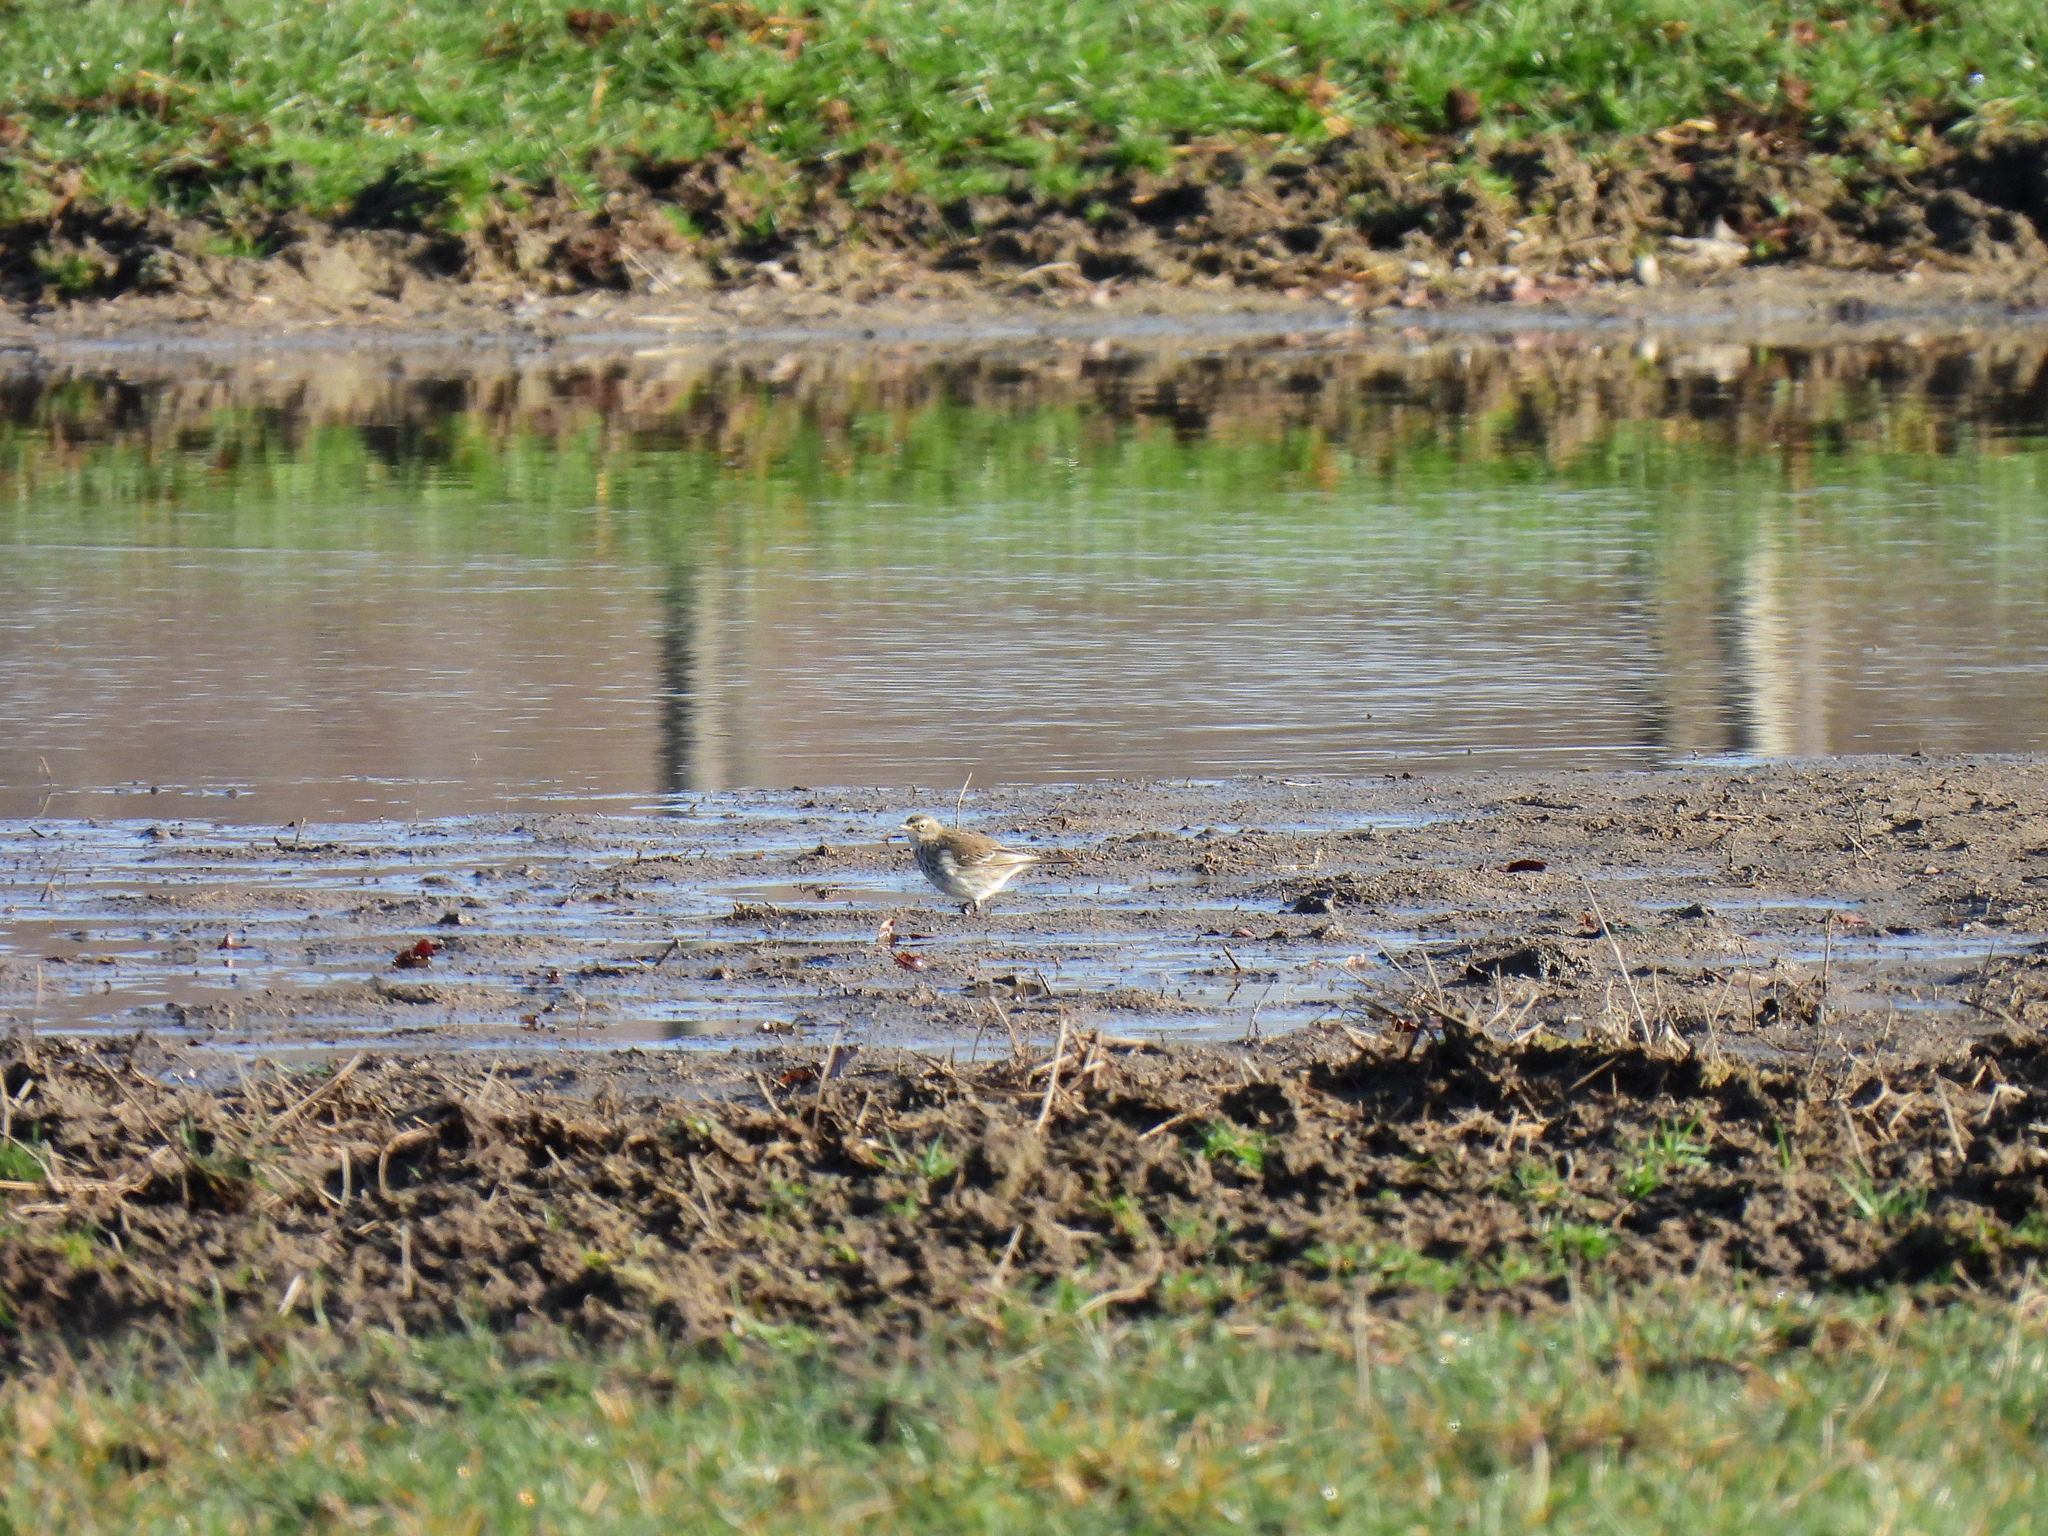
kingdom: Animalia
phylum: Chordata
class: Aves
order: Passeriformes
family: Motacillidae
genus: Anthus
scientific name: Anthus spinoletta
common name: Water pipit
